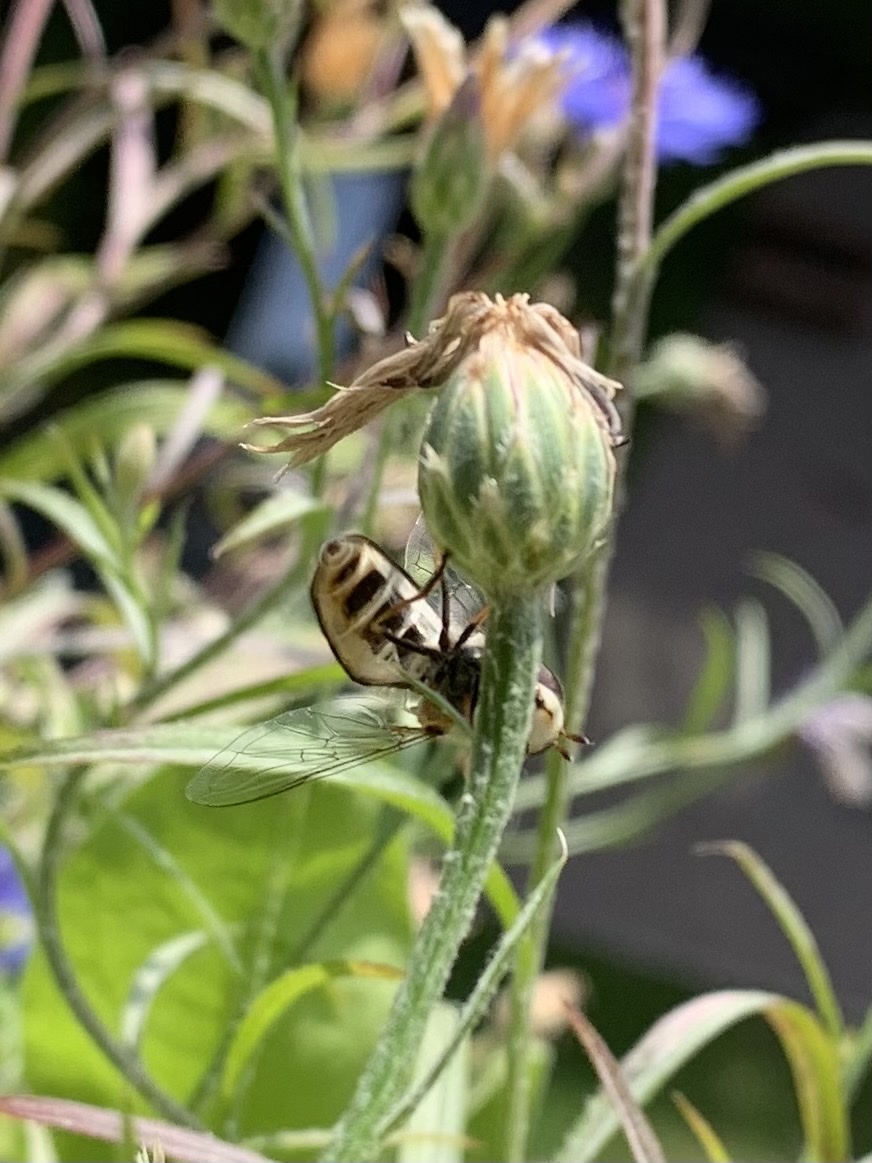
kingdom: Animalia
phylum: Arthropoda
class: Insecta
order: Diptera
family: Syrphidae
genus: Scaeva
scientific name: Scaeva pyrastri
